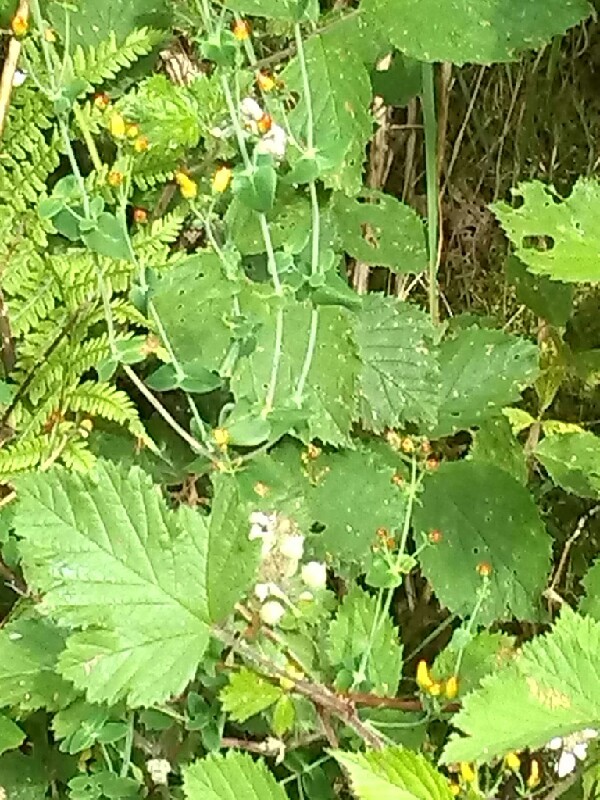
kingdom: Plantae
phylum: Tracheophyta
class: Magnoliopsida
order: Malpighiales
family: Hypericaceae
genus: Hypericum
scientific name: Hypericum pulchrum
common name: Slender st. john's-wort
